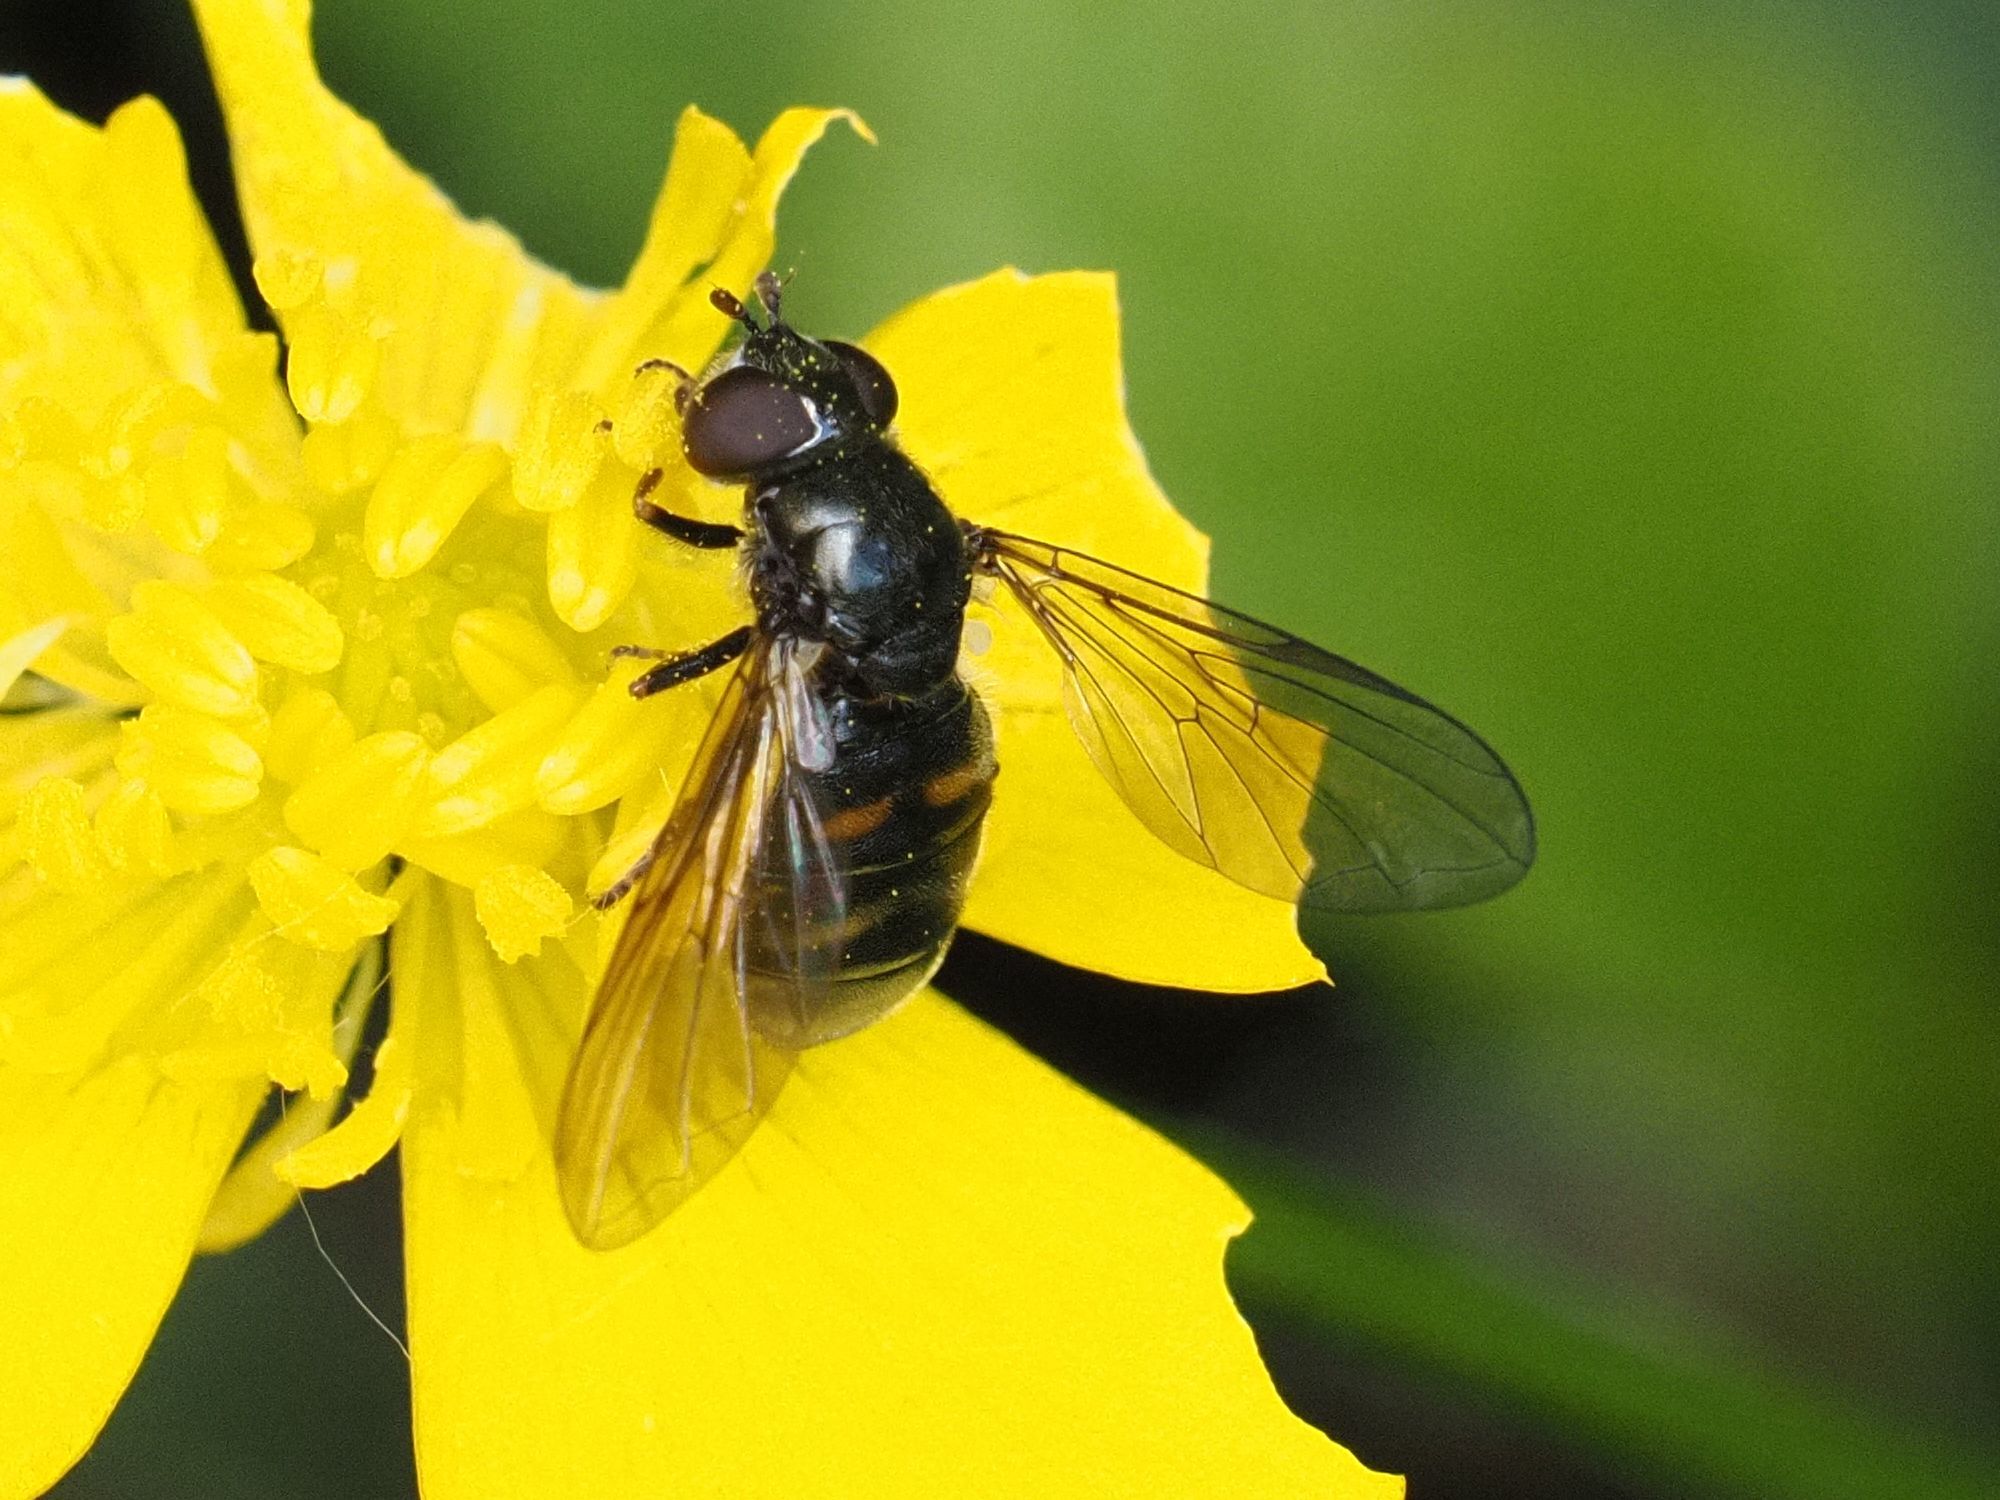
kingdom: Animalia
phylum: Arthropoda
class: Insecta
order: Diptera
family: Syrphidae
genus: Pipiza
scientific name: Pipiza quadrimaculata
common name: Four-spotted pipiza
